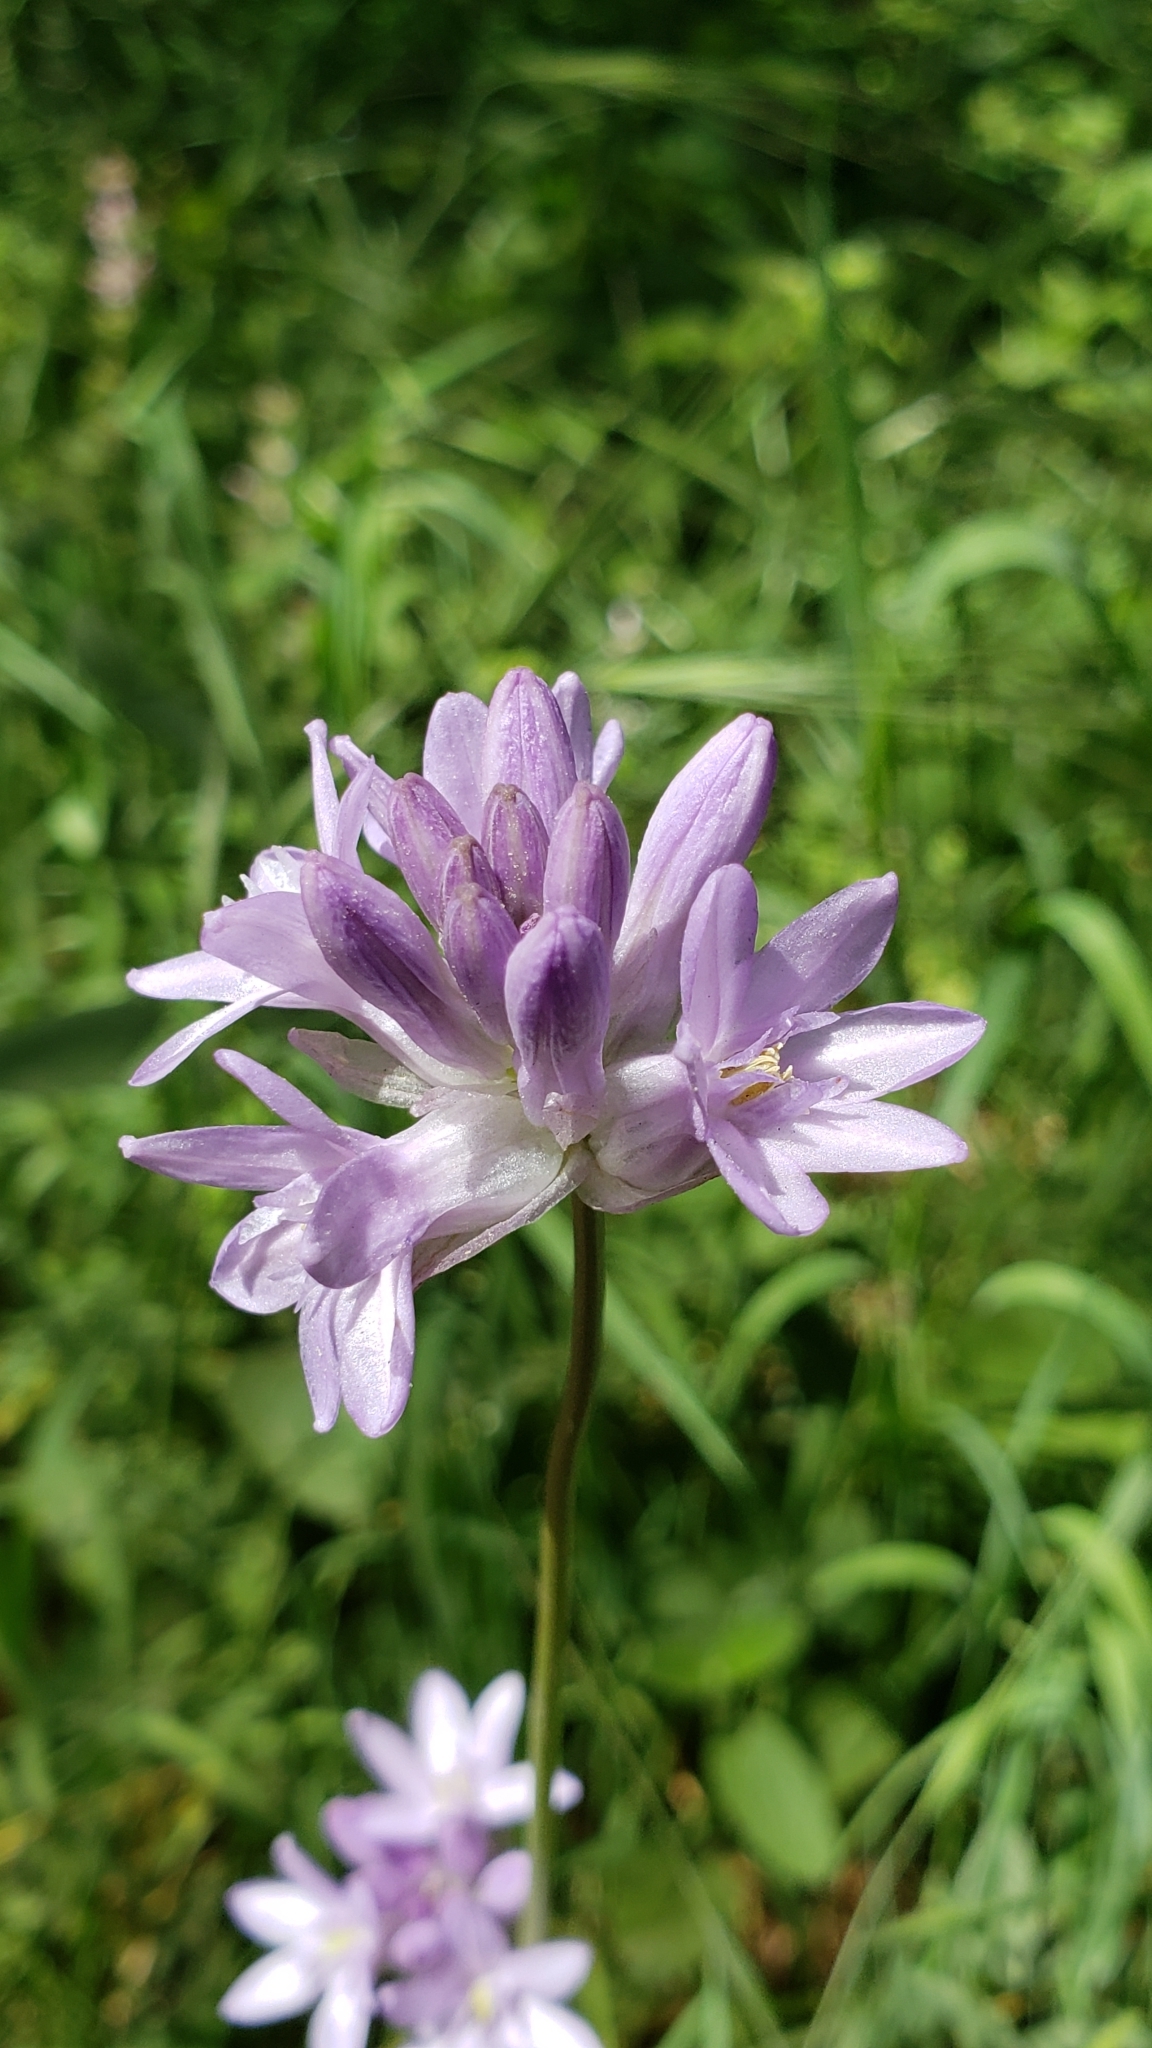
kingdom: Plantae
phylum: Tracheophyta
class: Liliopsida
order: Asparagales
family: Asparagaceae
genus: Dichelostemma
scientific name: Dichelostemma congestum
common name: Fork-tooth ookow
